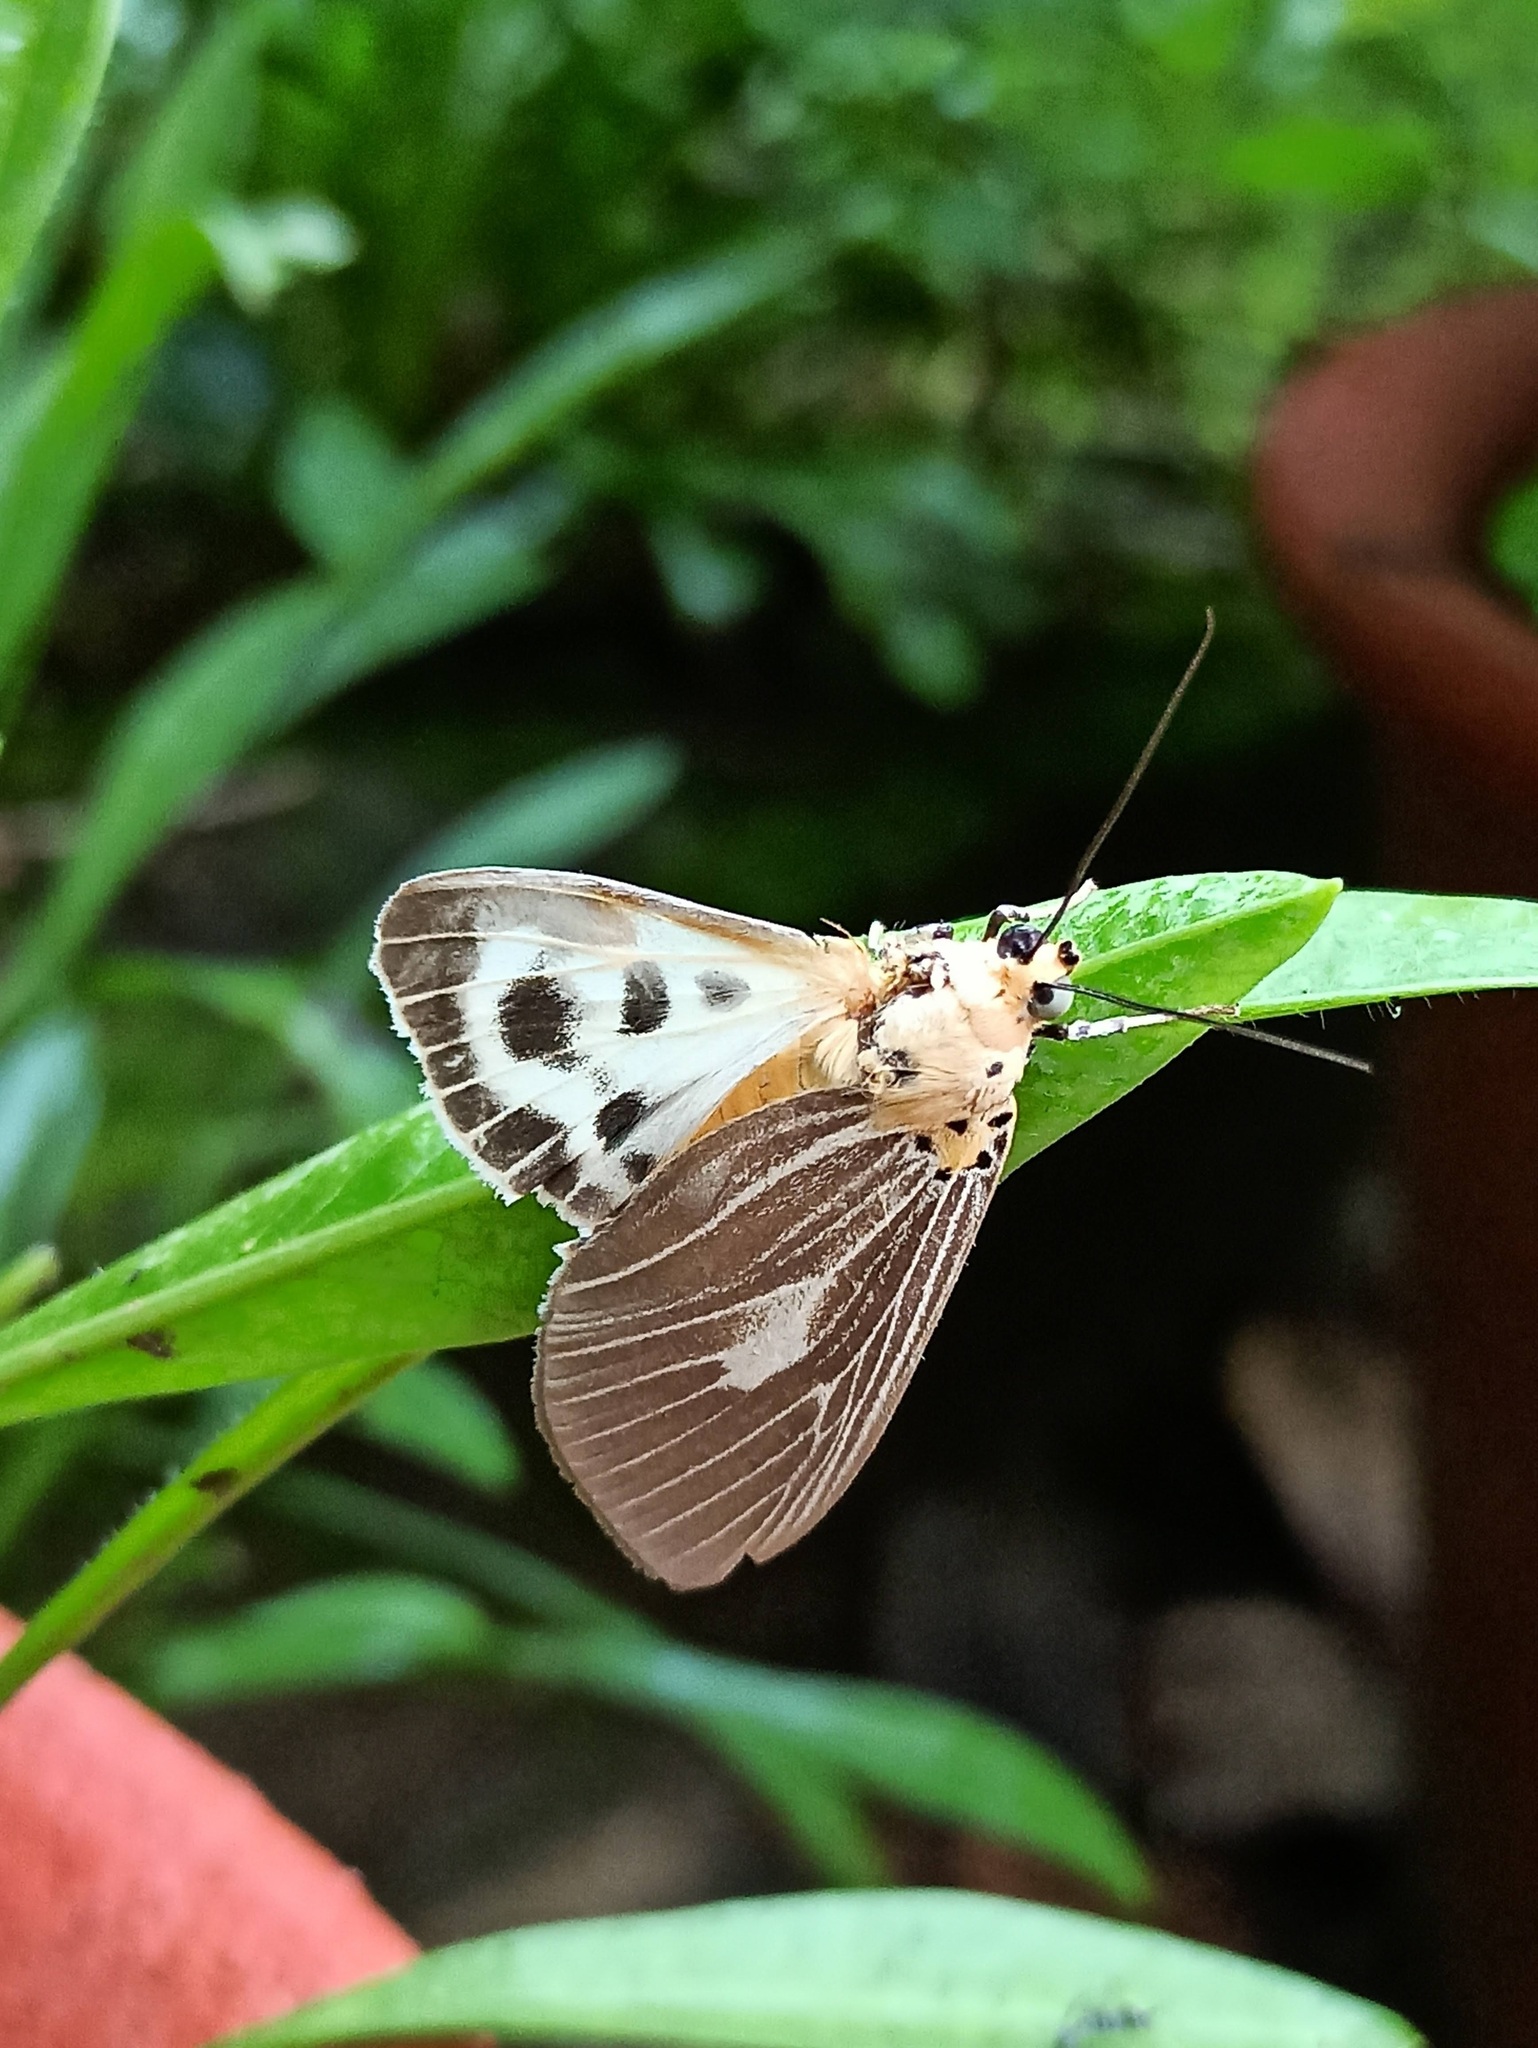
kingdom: Animalia
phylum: Arthropoda
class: Insecta
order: Lepidoptera
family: Erebidae
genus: Asota
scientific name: Asota canaraica
